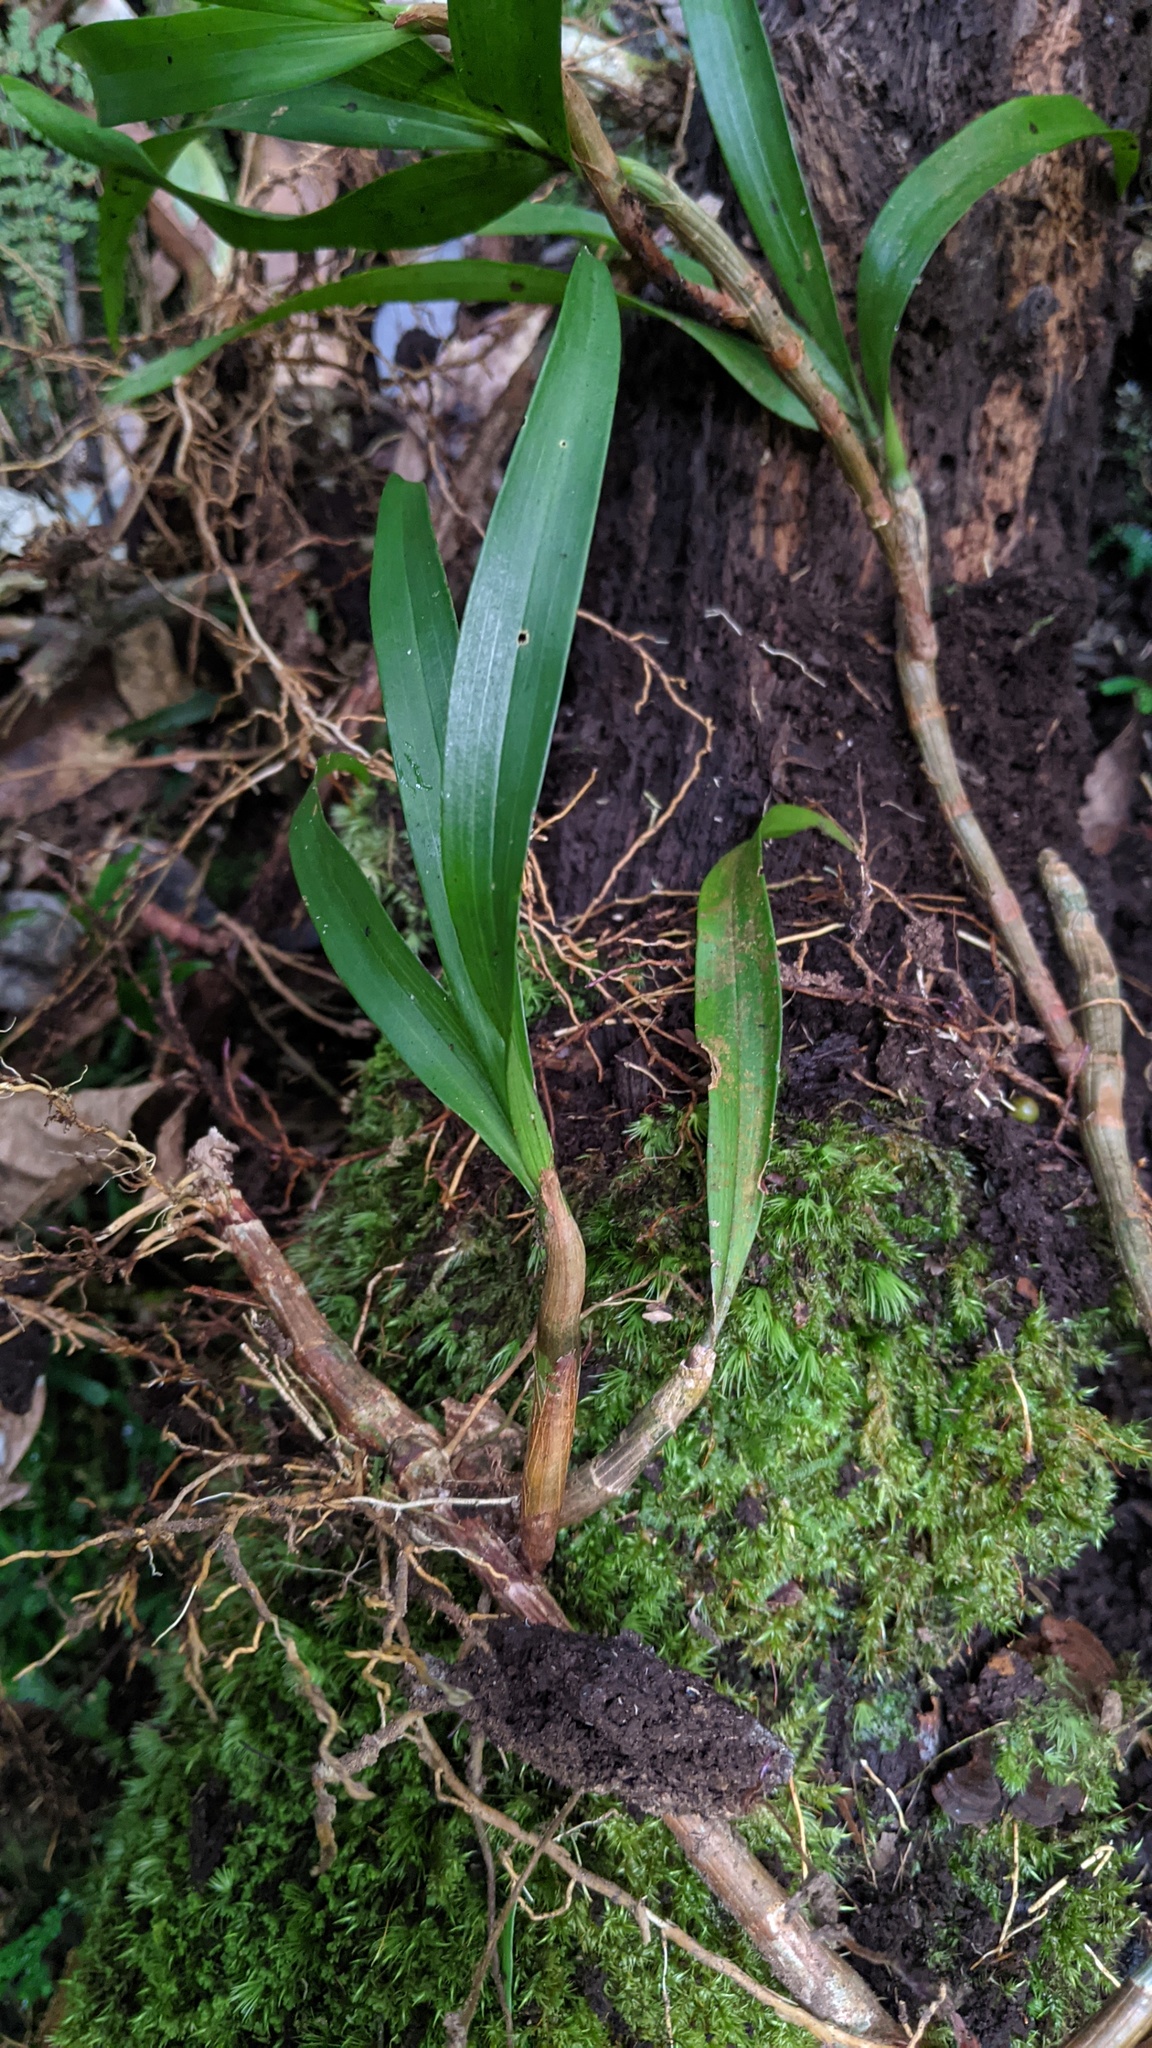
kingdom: Plantae
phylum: Tracheophyta
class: Liliopsida
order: Asparagales
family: Orchidaceae
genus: Pinalia
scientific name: Pinalia formosana
